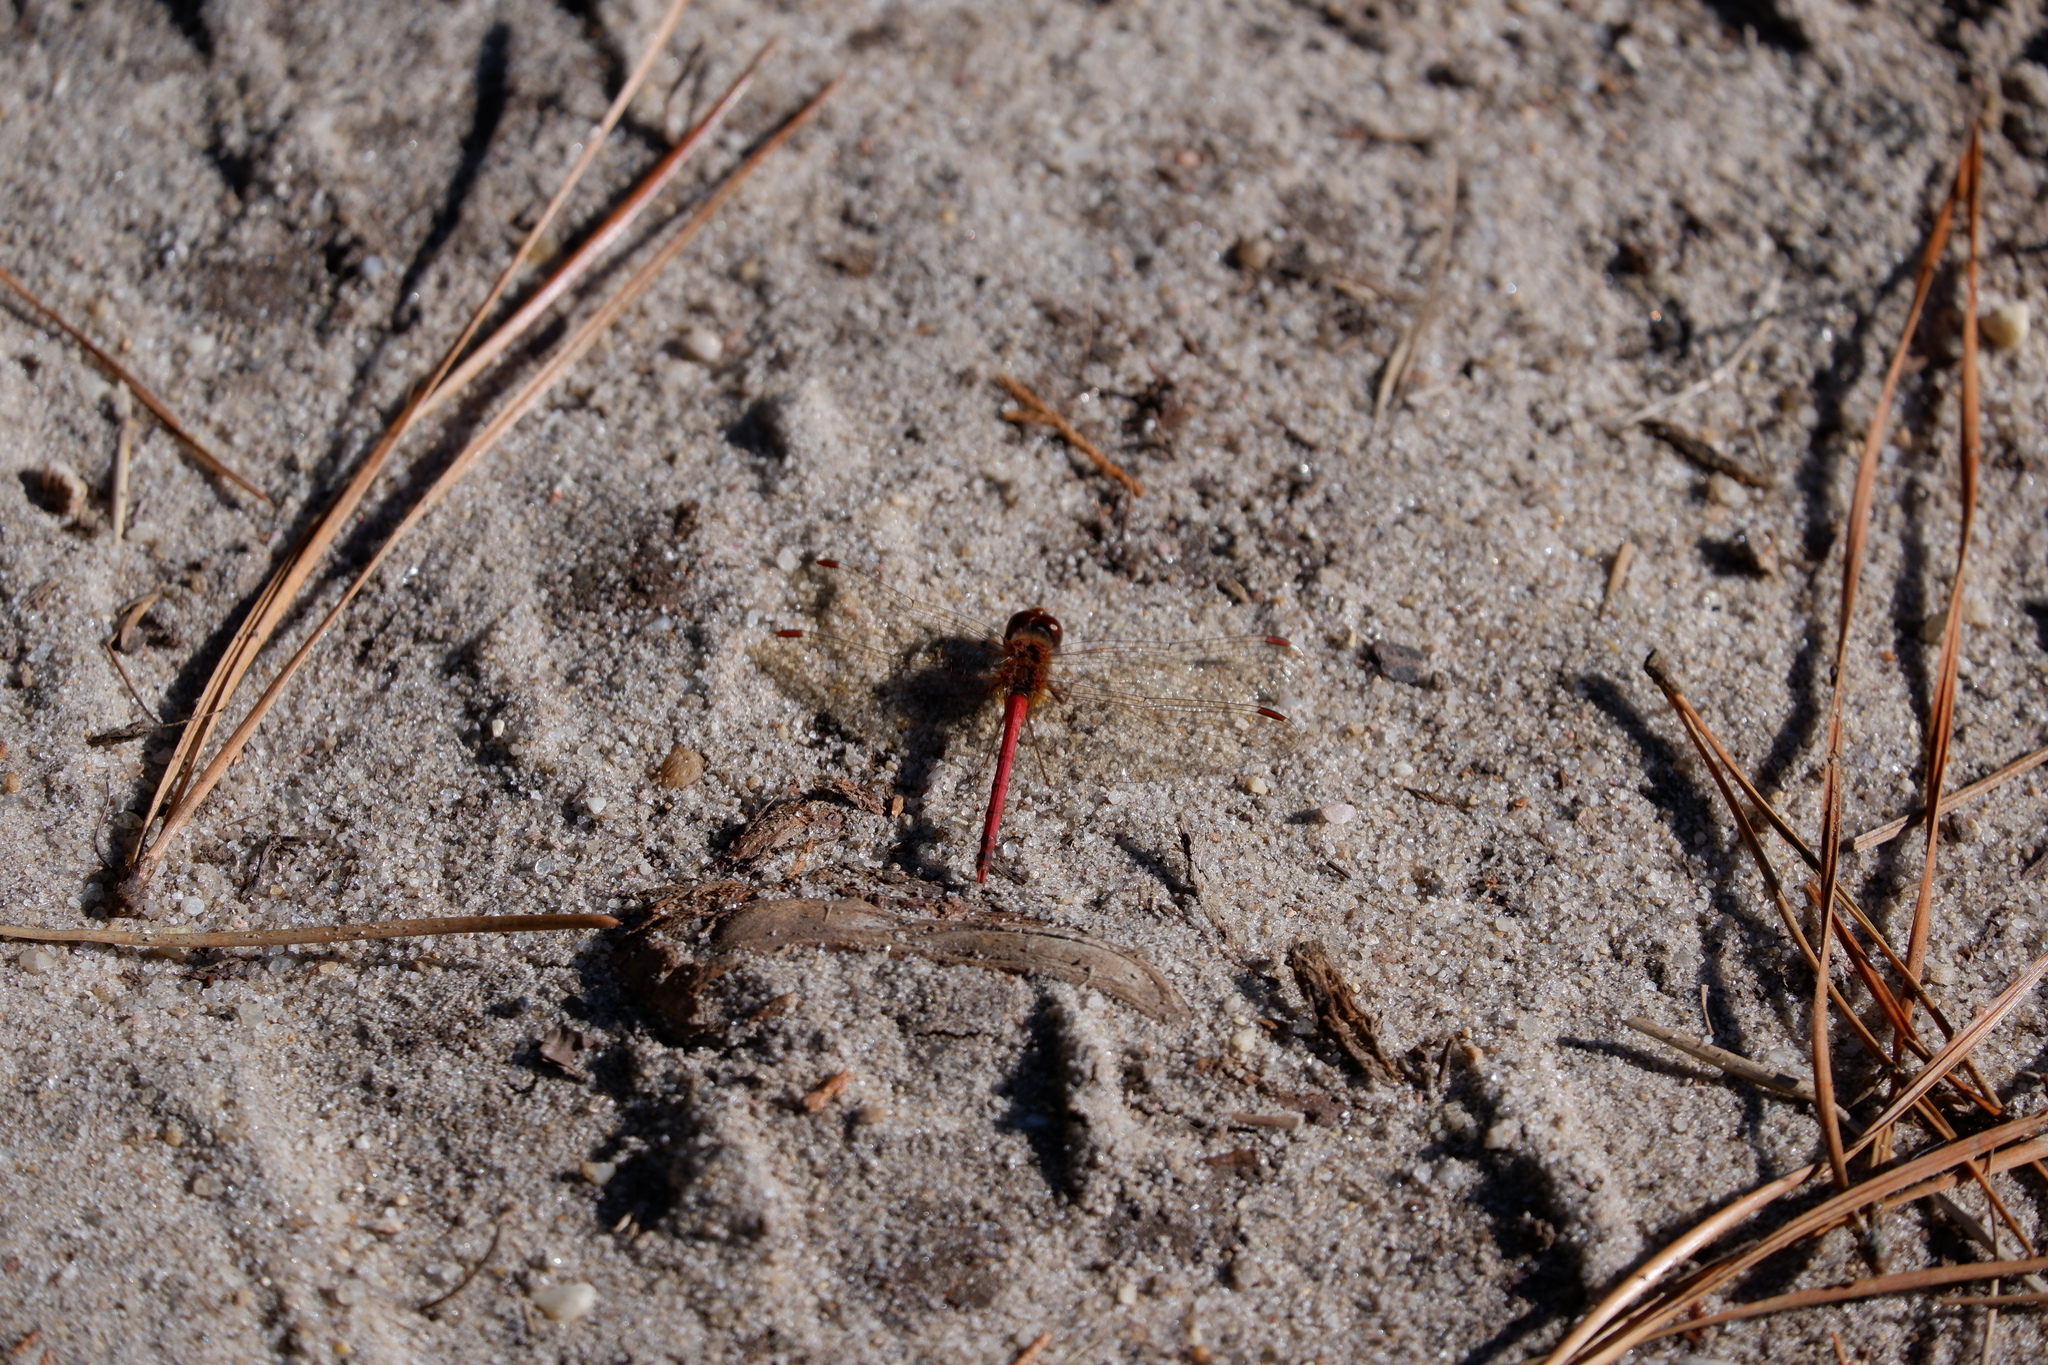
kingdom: Animalia
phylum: Arthropoda
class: Insecta
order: Odonata
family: Libellulidae
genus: Sympetrum
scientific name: Sympetrum vicinum
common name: Autumn meadowhawk
